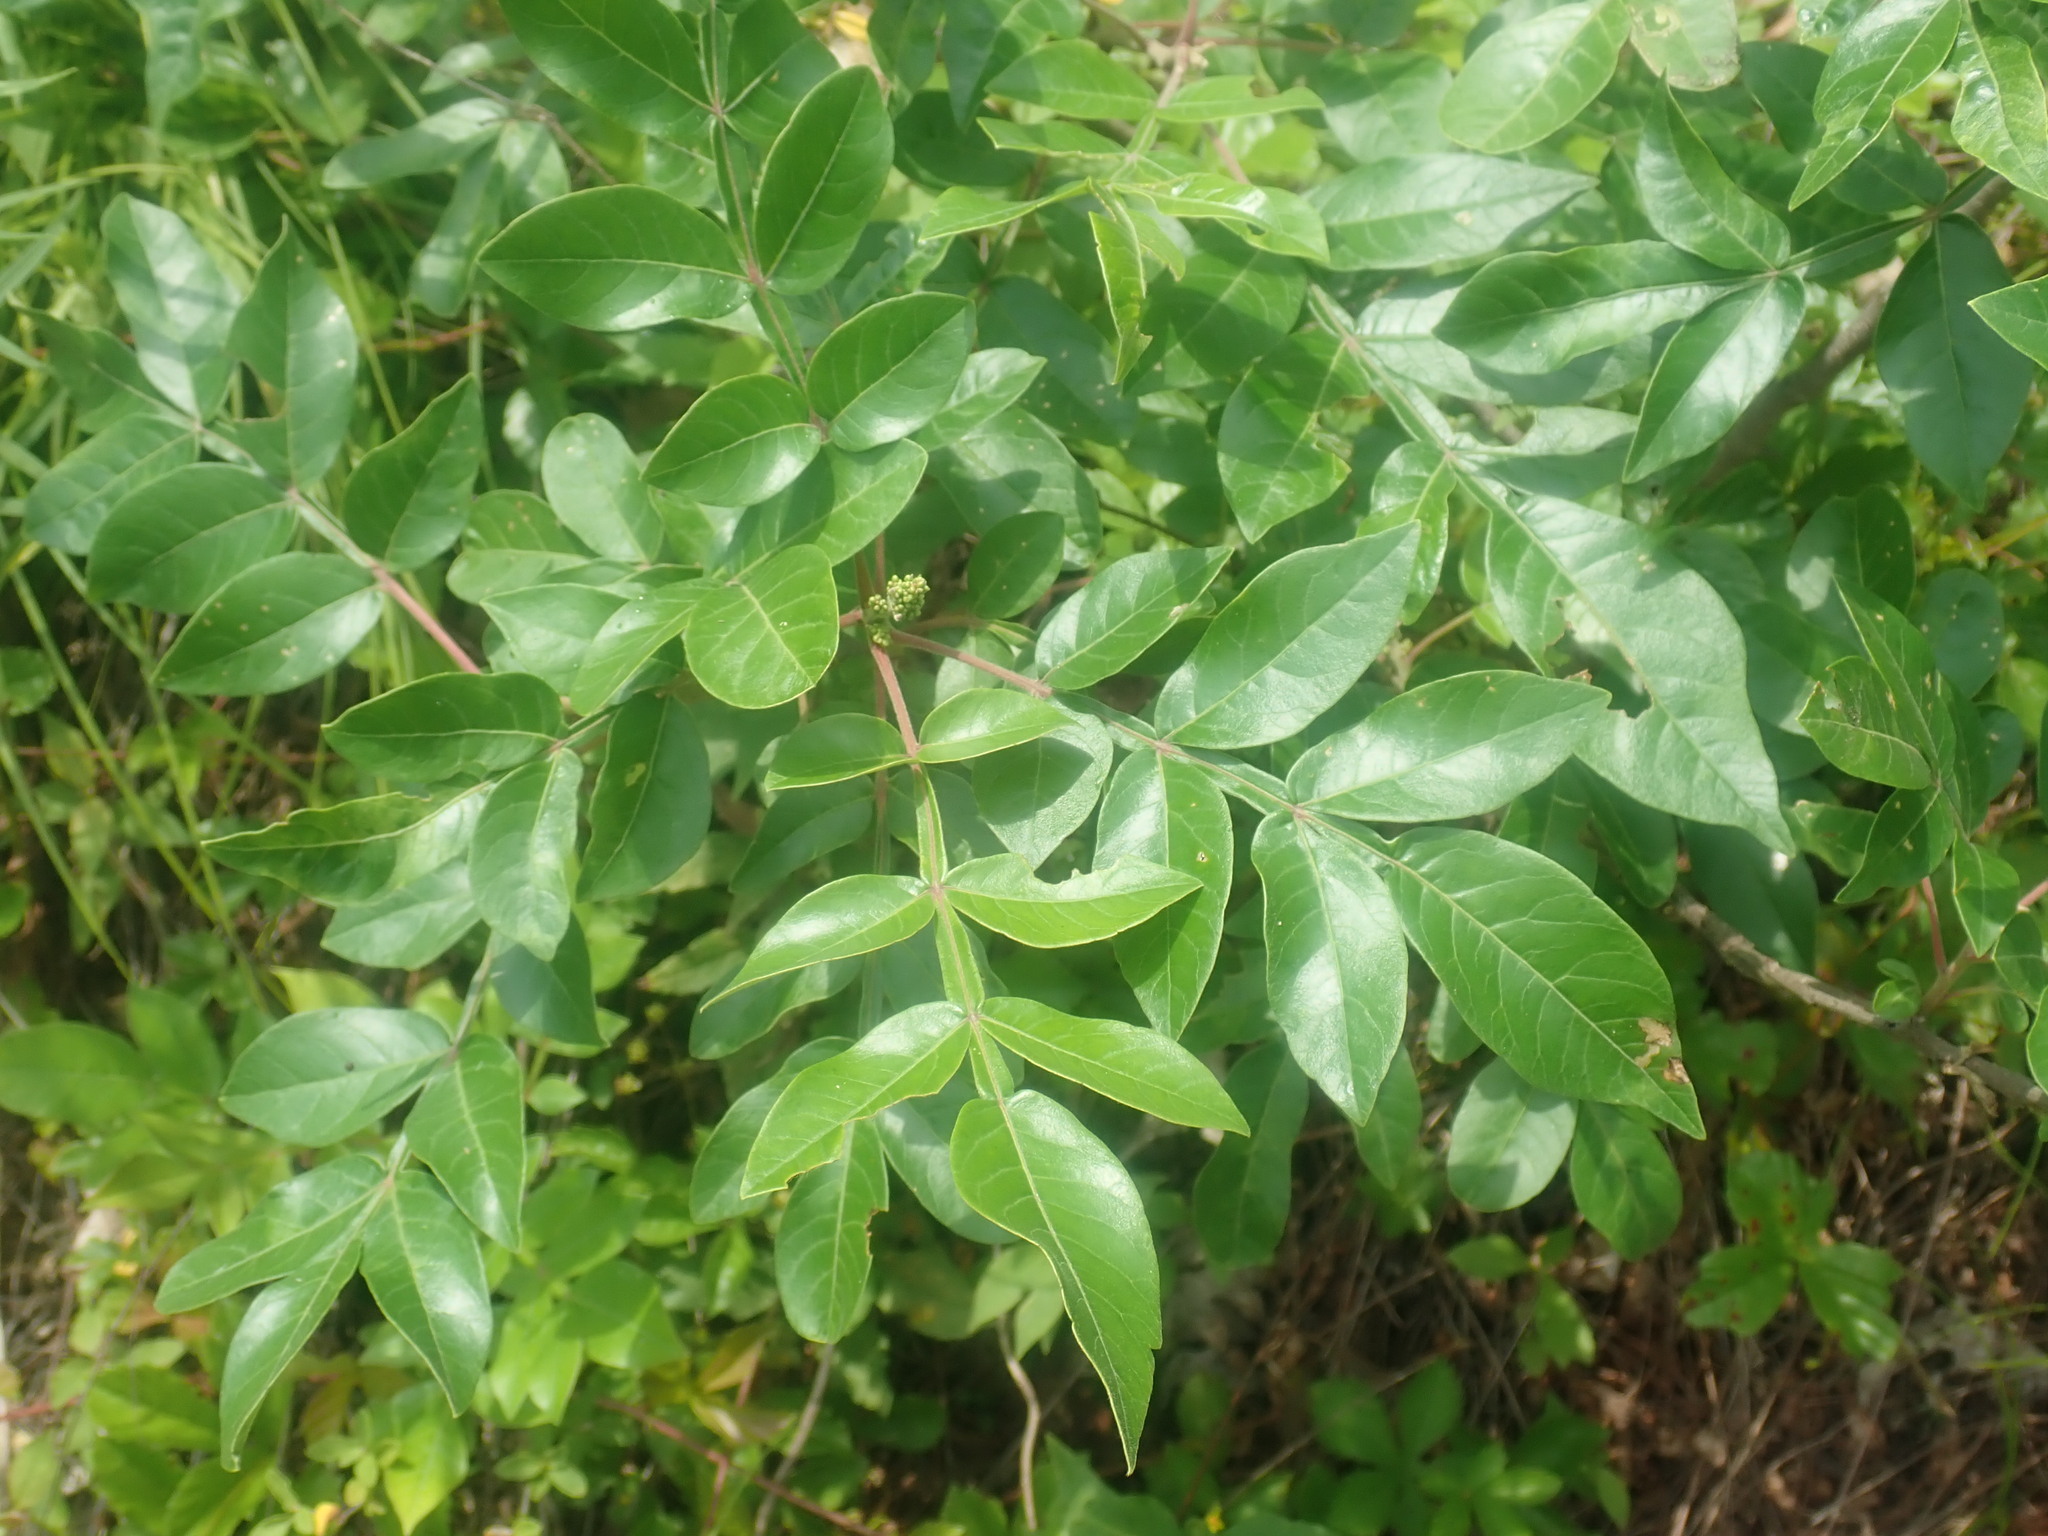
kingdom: Plantae
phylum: Tracheophyta
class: Magnoliopsida
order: Sapindales
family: Anacardiaceae
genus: Rhus
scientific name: Rhus copallina
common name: Shining sumac
